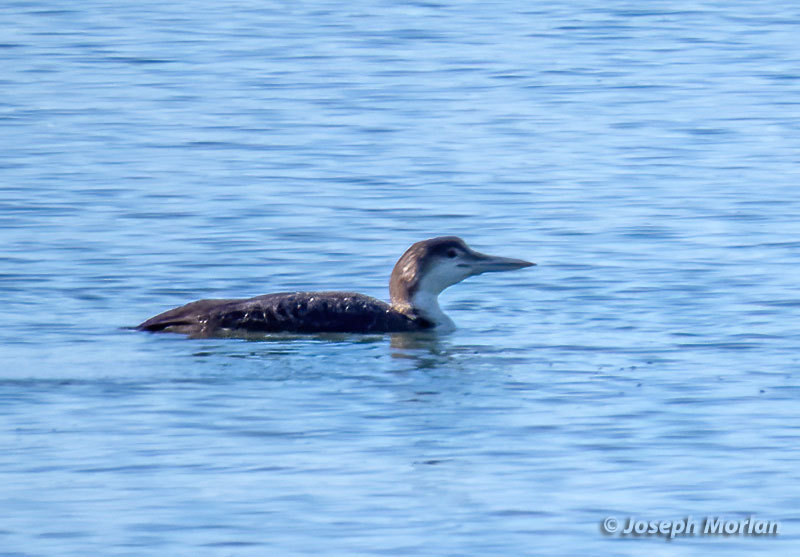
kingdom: Animalia
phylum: Chordata
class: Aves
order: Gaviiformes
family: Gaviidae
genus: Gavia
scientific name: Gavia immer
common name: Common loon
